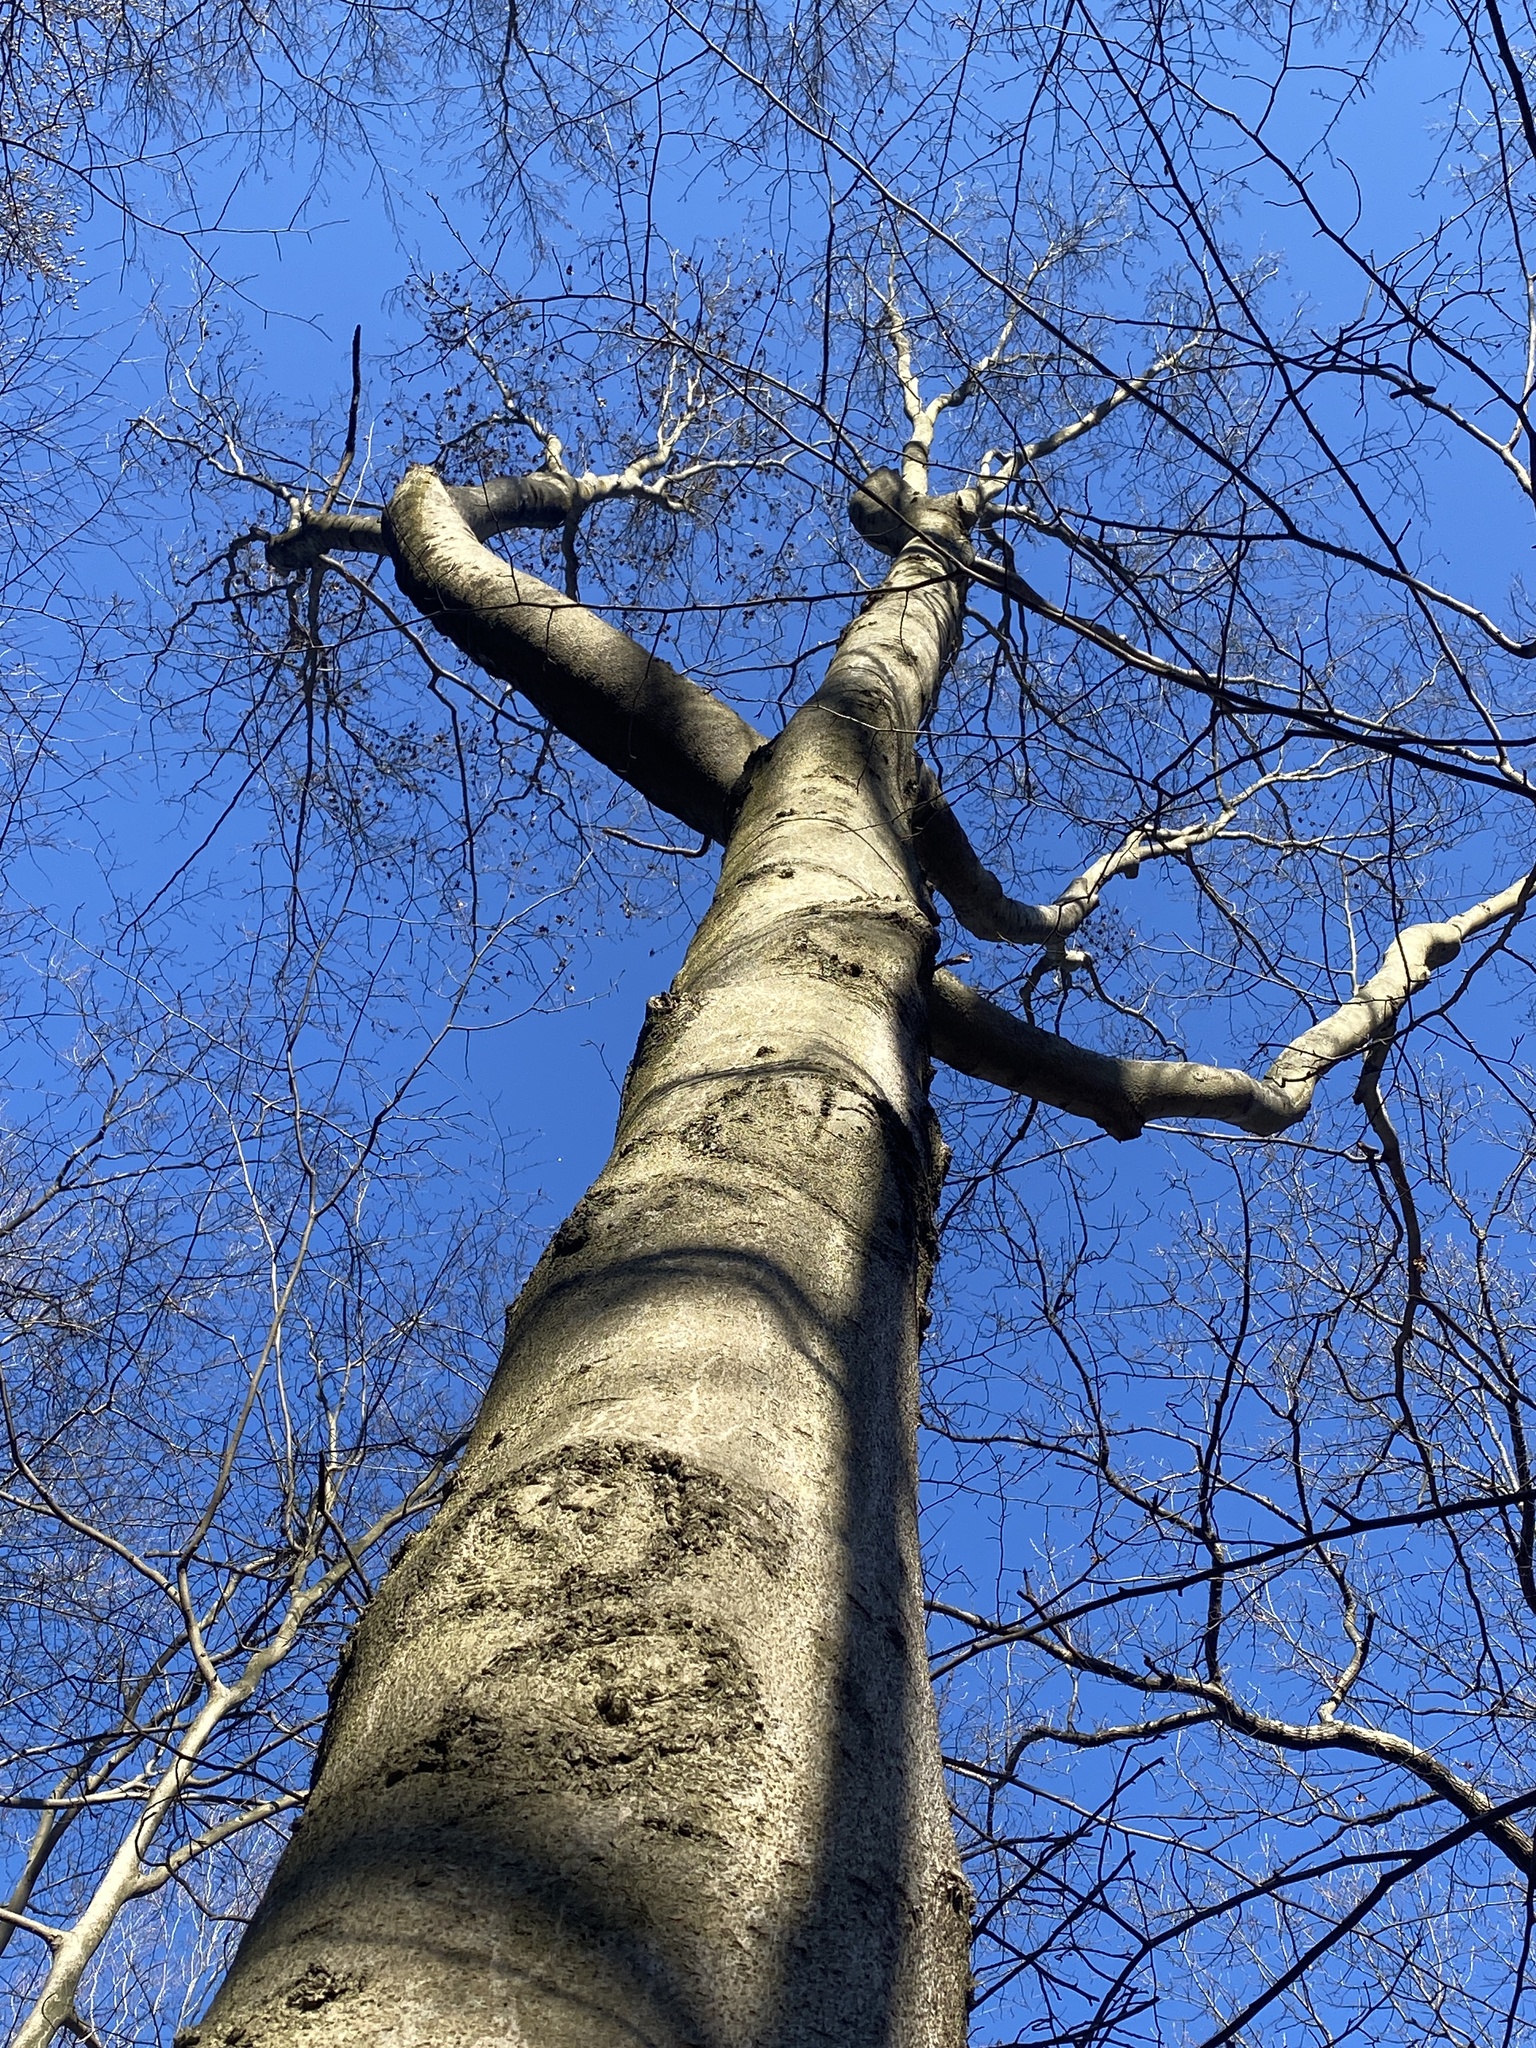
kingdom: Plantae
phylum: Tracheophyta
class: Magnoliopsida
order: Fagales
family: Fagaceae
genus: Fagus
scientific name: Fagus grandifolia
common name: American beech
